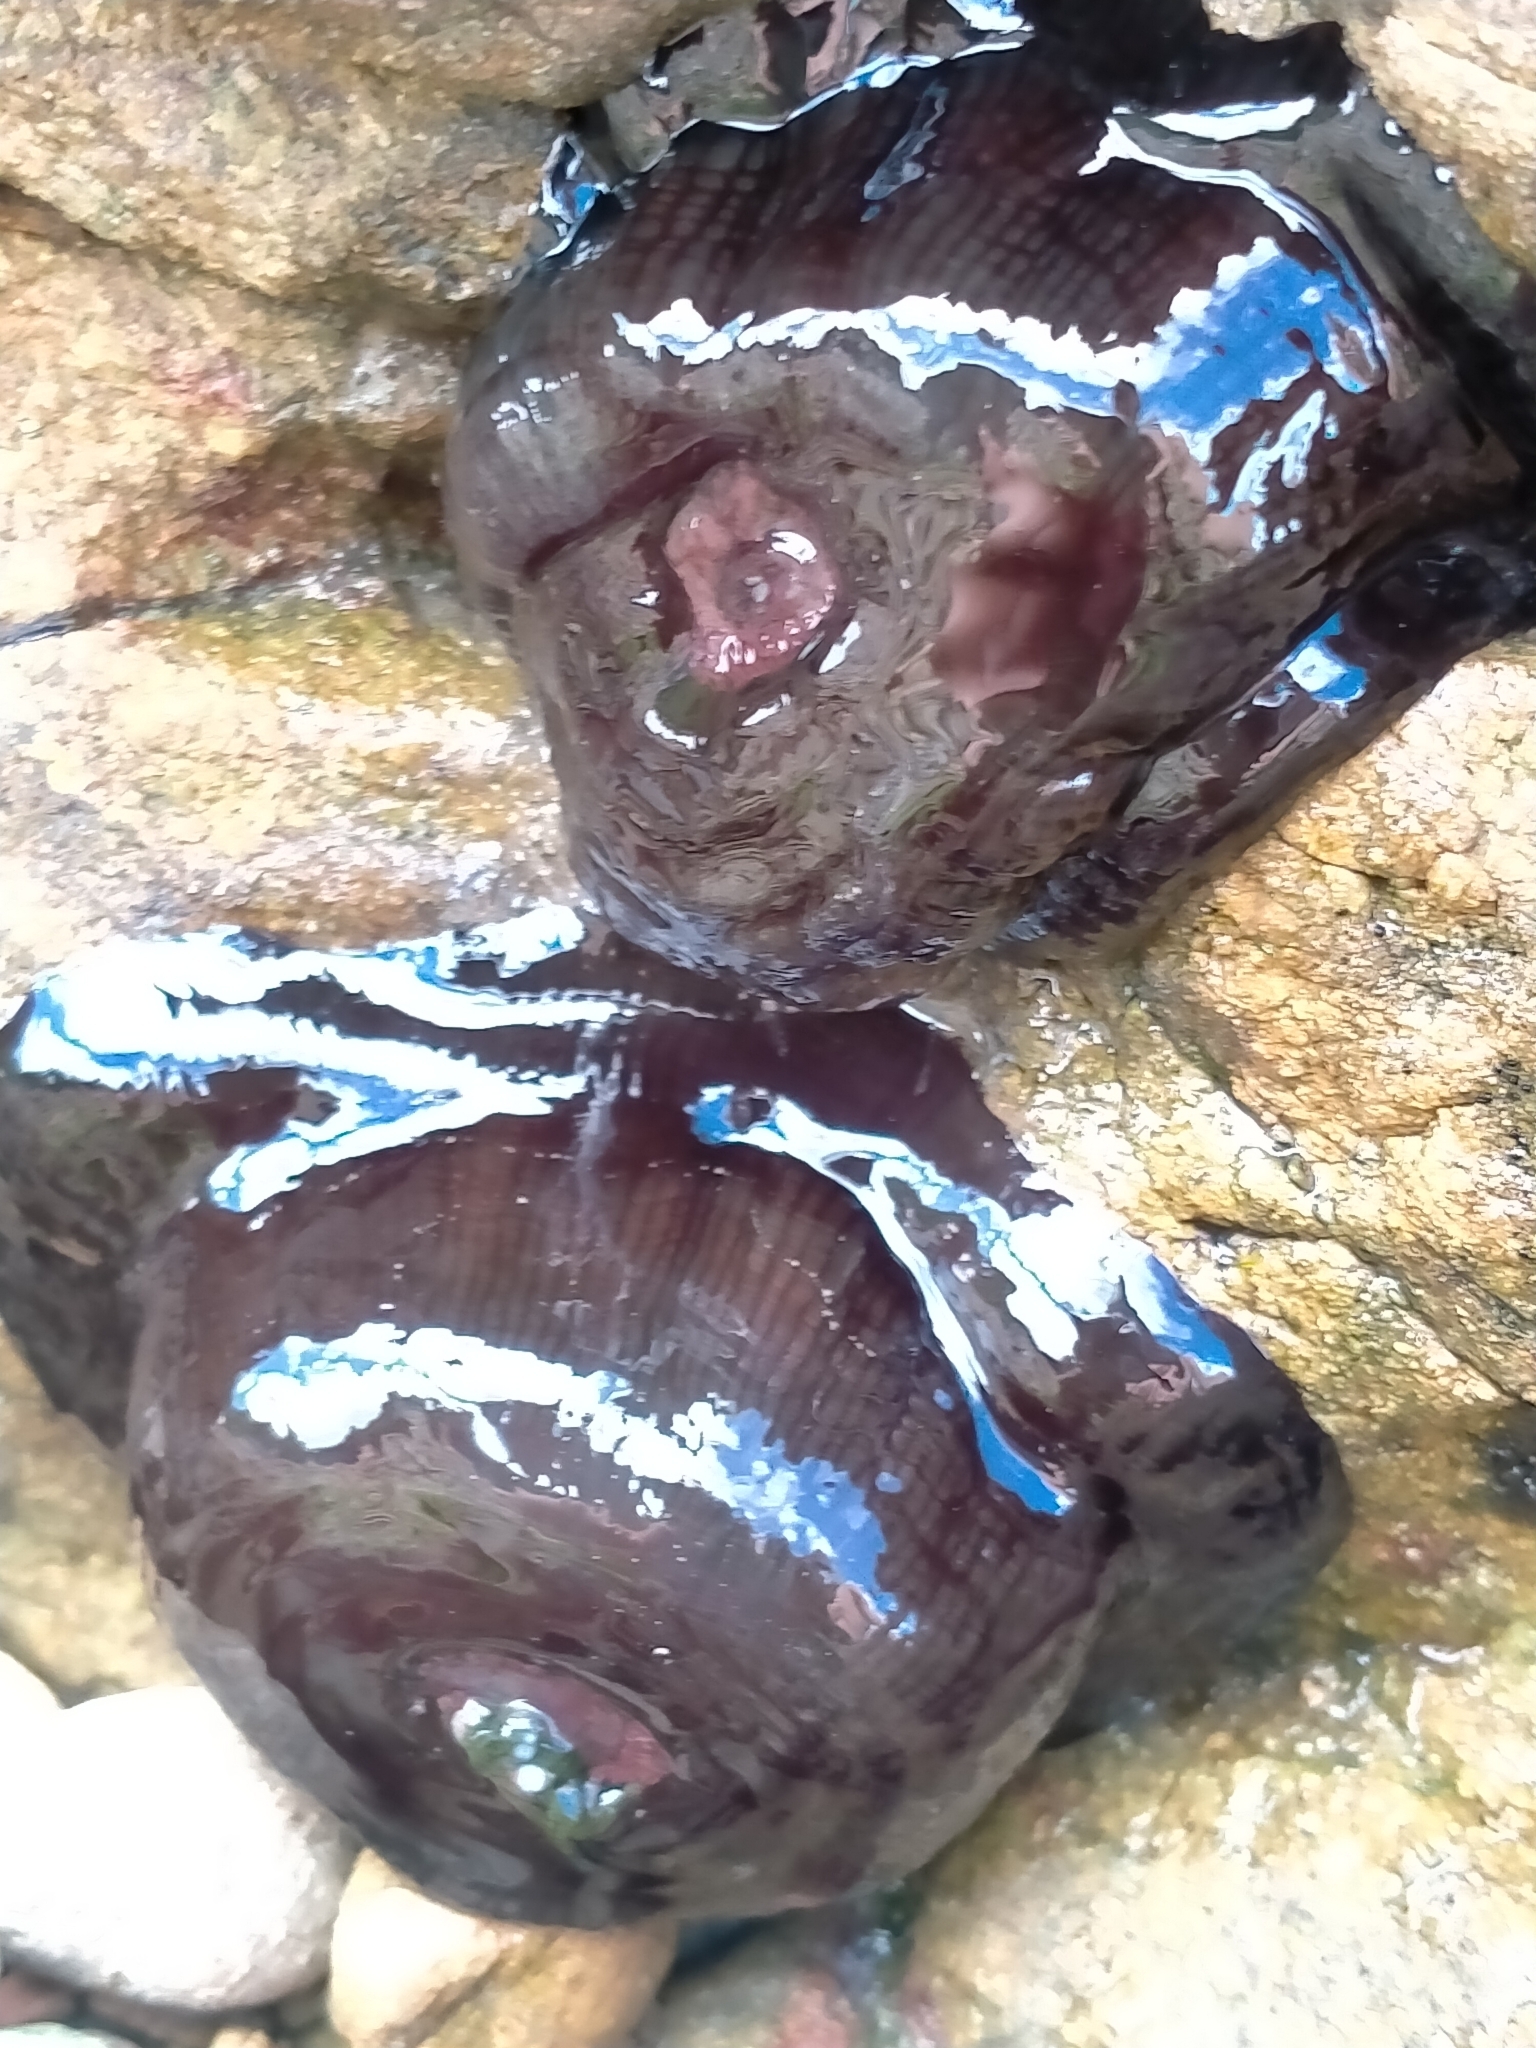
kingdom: Animalia
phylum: Cnidaria
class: Anthozoa
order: Actiniaria
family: Actiniidae
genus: Actinia
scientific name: Actinia tenebrosa
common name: Waratah anemone
